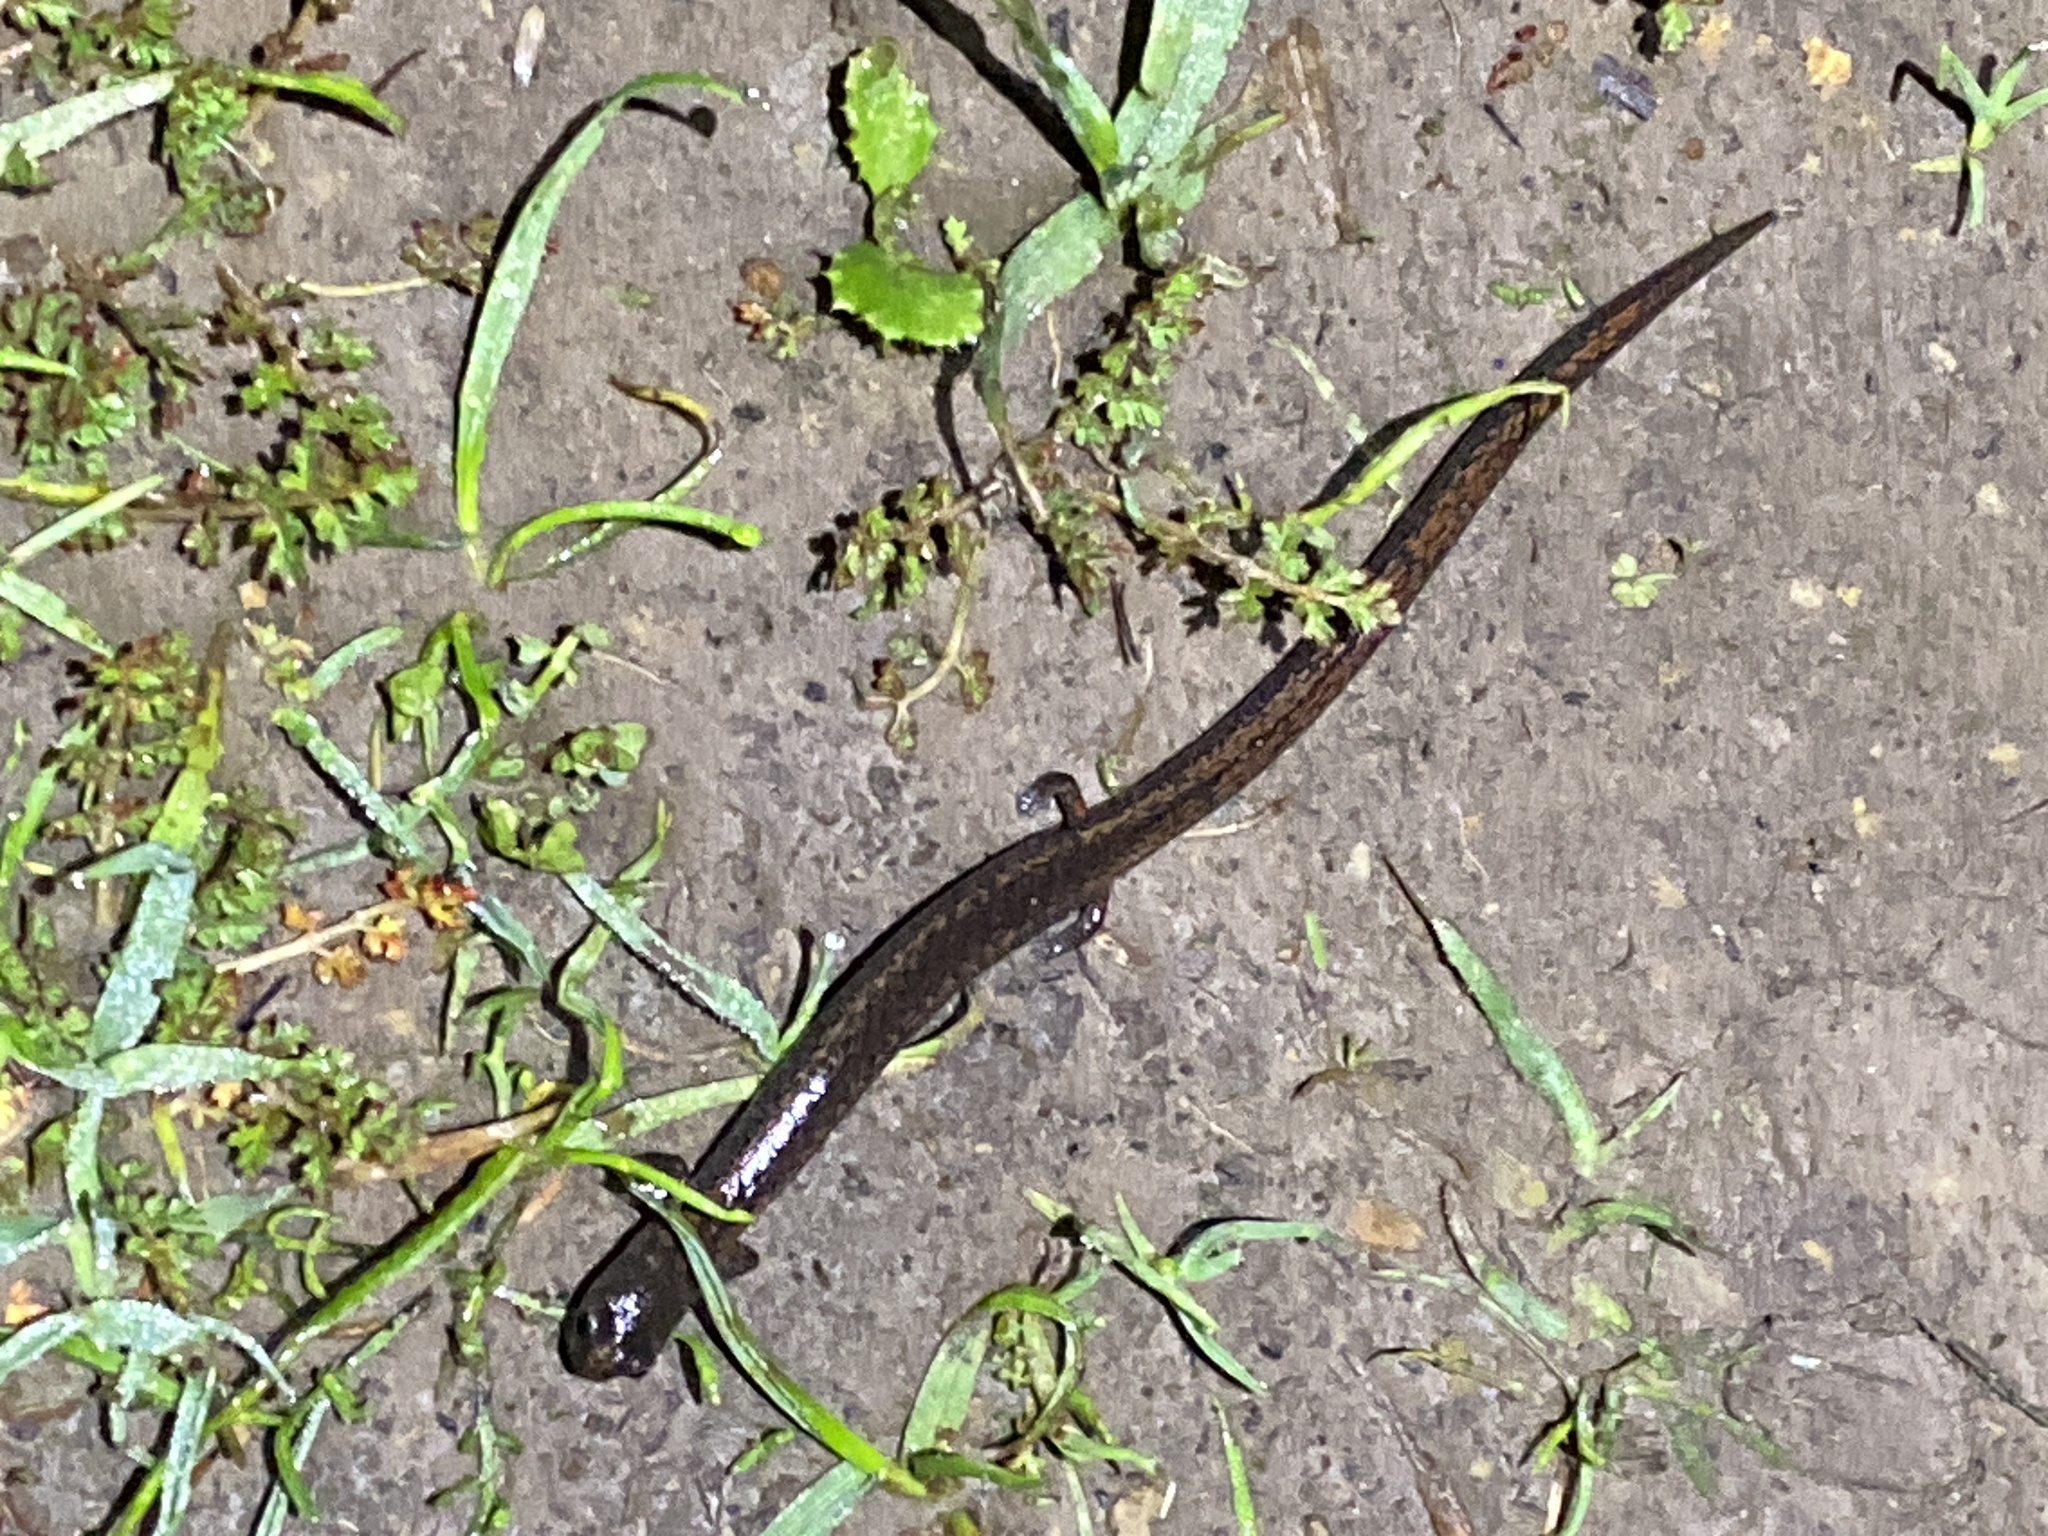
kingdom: Animalia
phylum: Chordata
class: Amphibia
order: Caudata
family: Plethodontidae
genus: Batrachoseps
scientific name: Batrachoseps attenuatus
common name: California slender salamander
